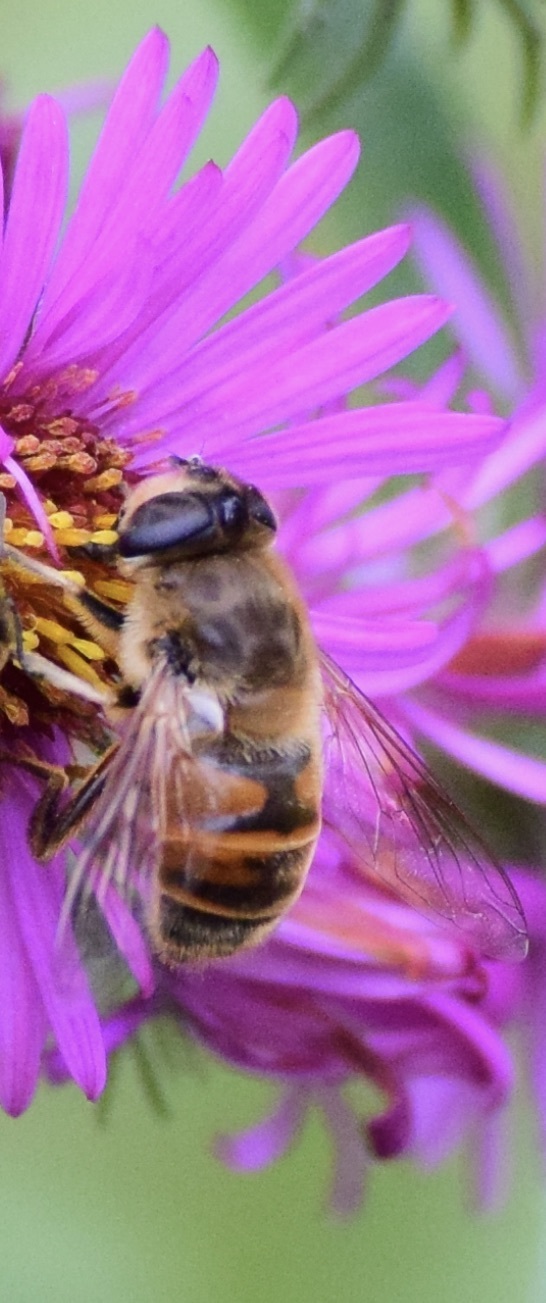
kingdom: Animalia
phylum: Arthropoda
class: Insecta
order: Diptera
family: Syrphidae
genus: Eristalis
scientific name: Eristalis tenax
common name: Drone fly
